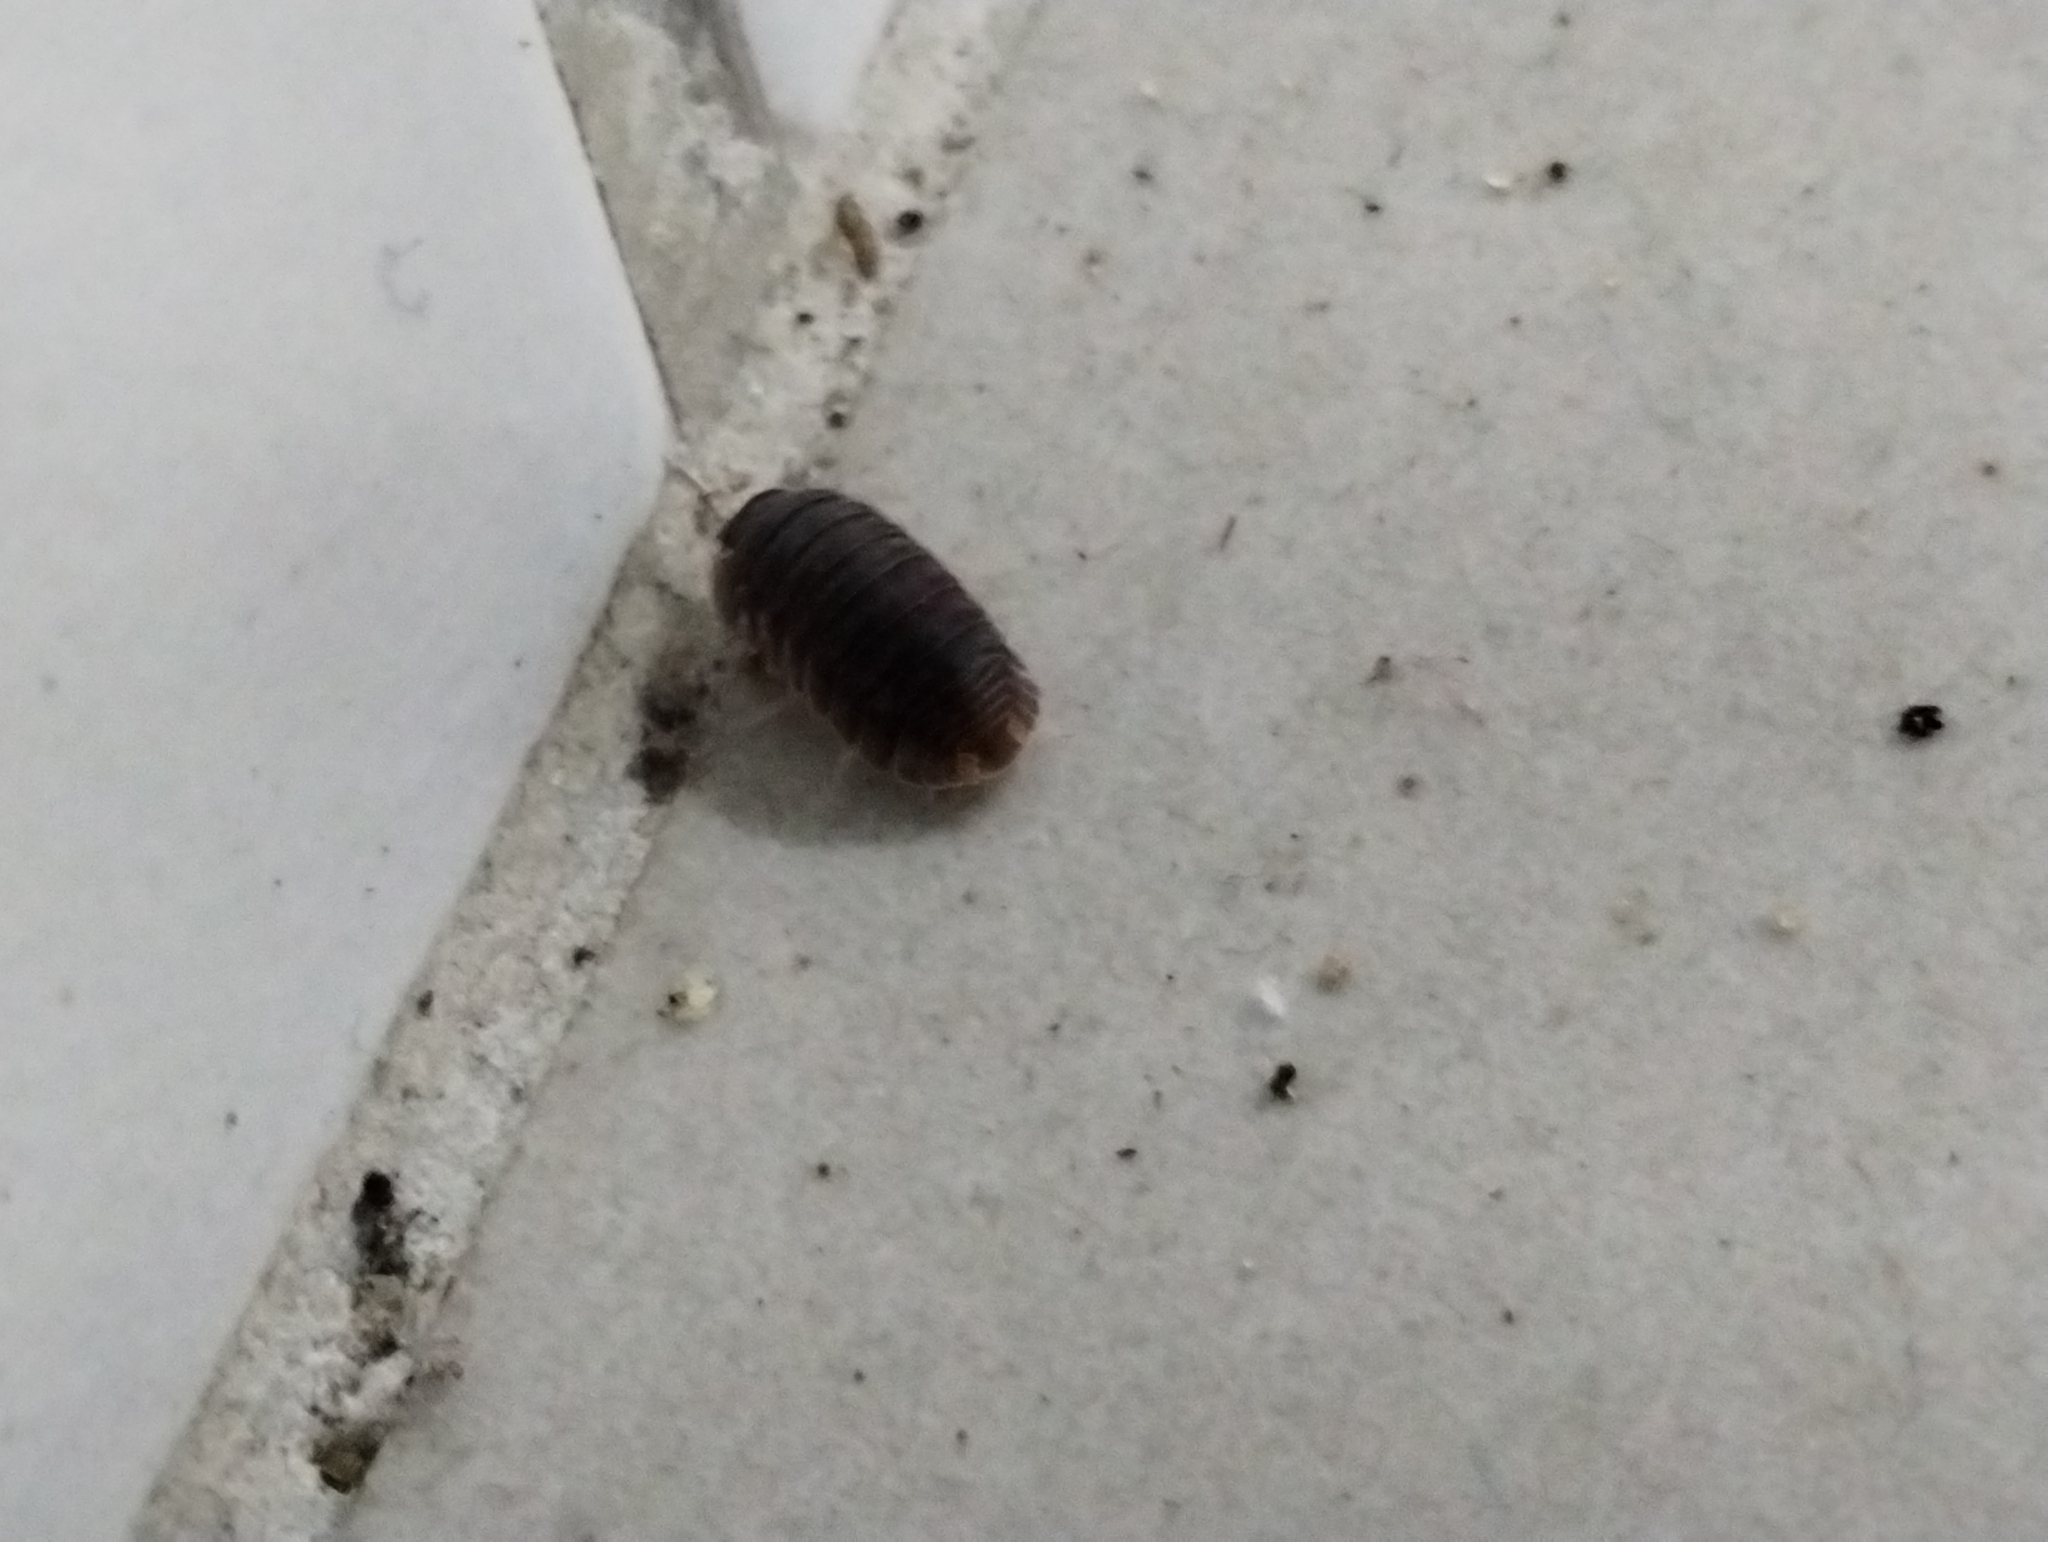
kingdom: Animalia
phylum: Arthropoda
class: Malacostraca
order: Isopoda
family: Armadillidae
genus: Cubaris
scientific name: Cubaris murina
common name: Pillbug
